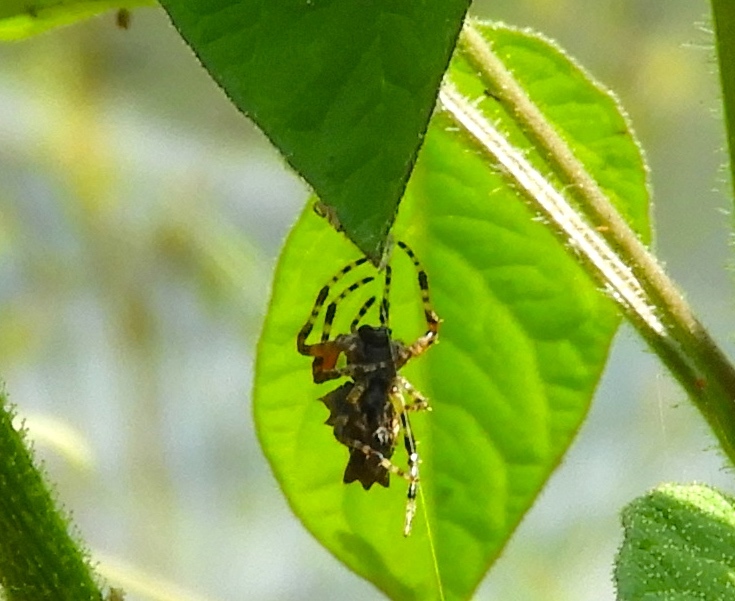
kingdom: Animalia
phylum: Arthropoda
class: Arachnida
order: Araneae
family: Araneidae
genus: Wagneriana
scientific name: Wagneriana
